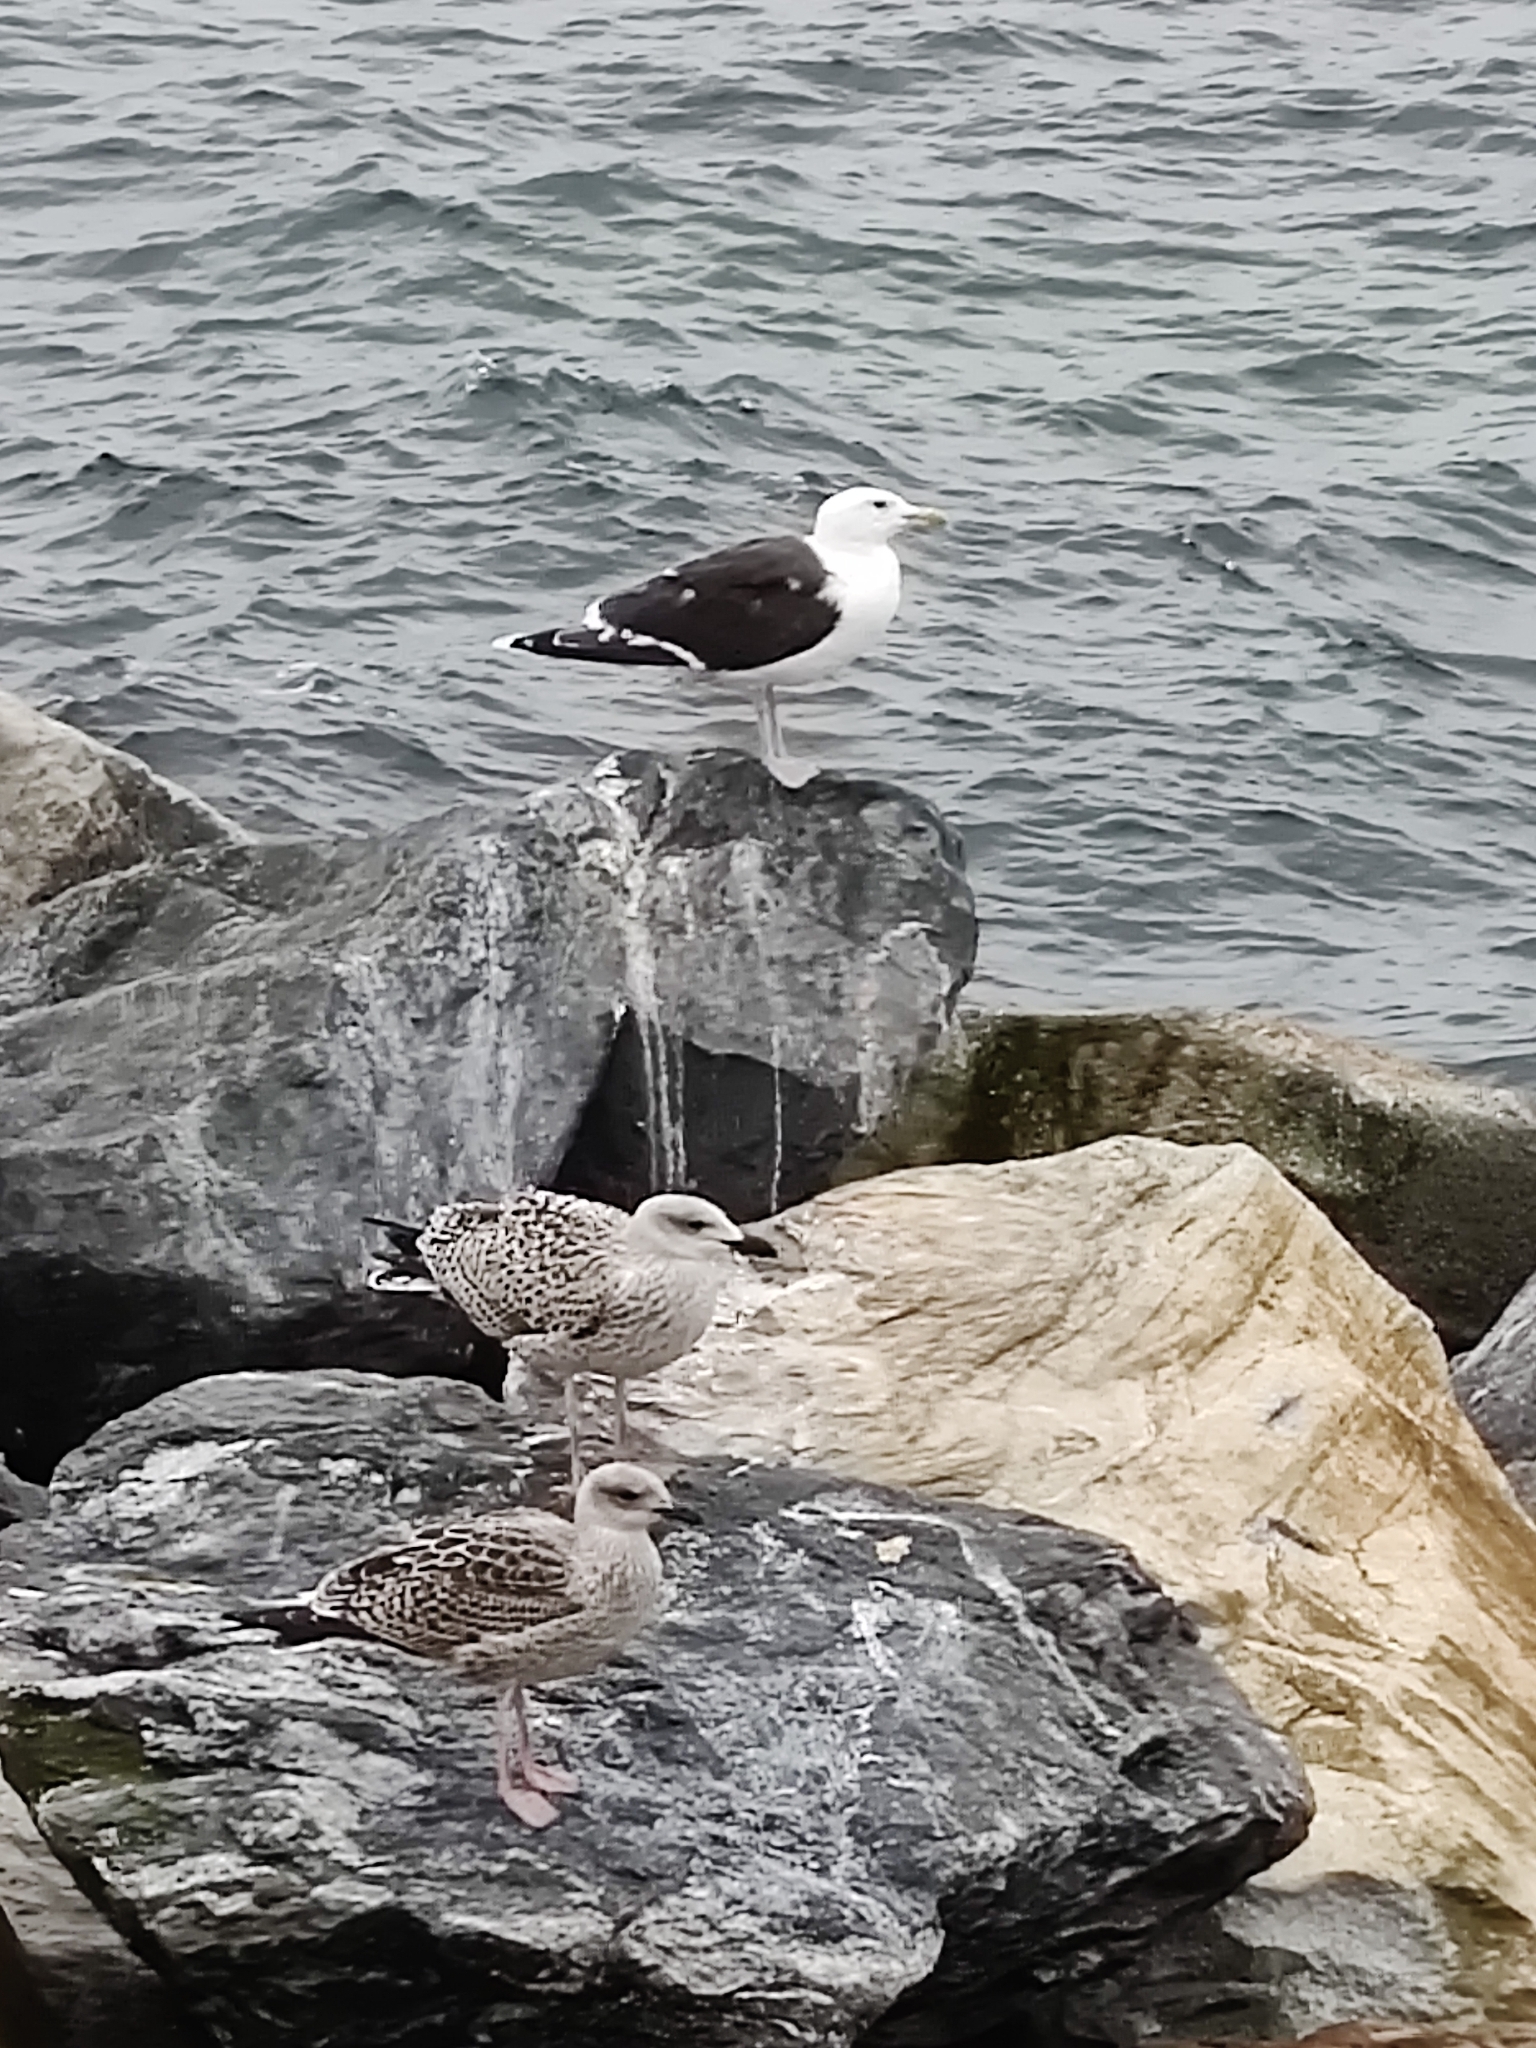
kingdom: Animalia
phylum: Chordata
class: Aves
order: Charadriiformes
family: Laridae
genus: Larus
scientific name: Larus marinus
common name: Great black-backed gull
